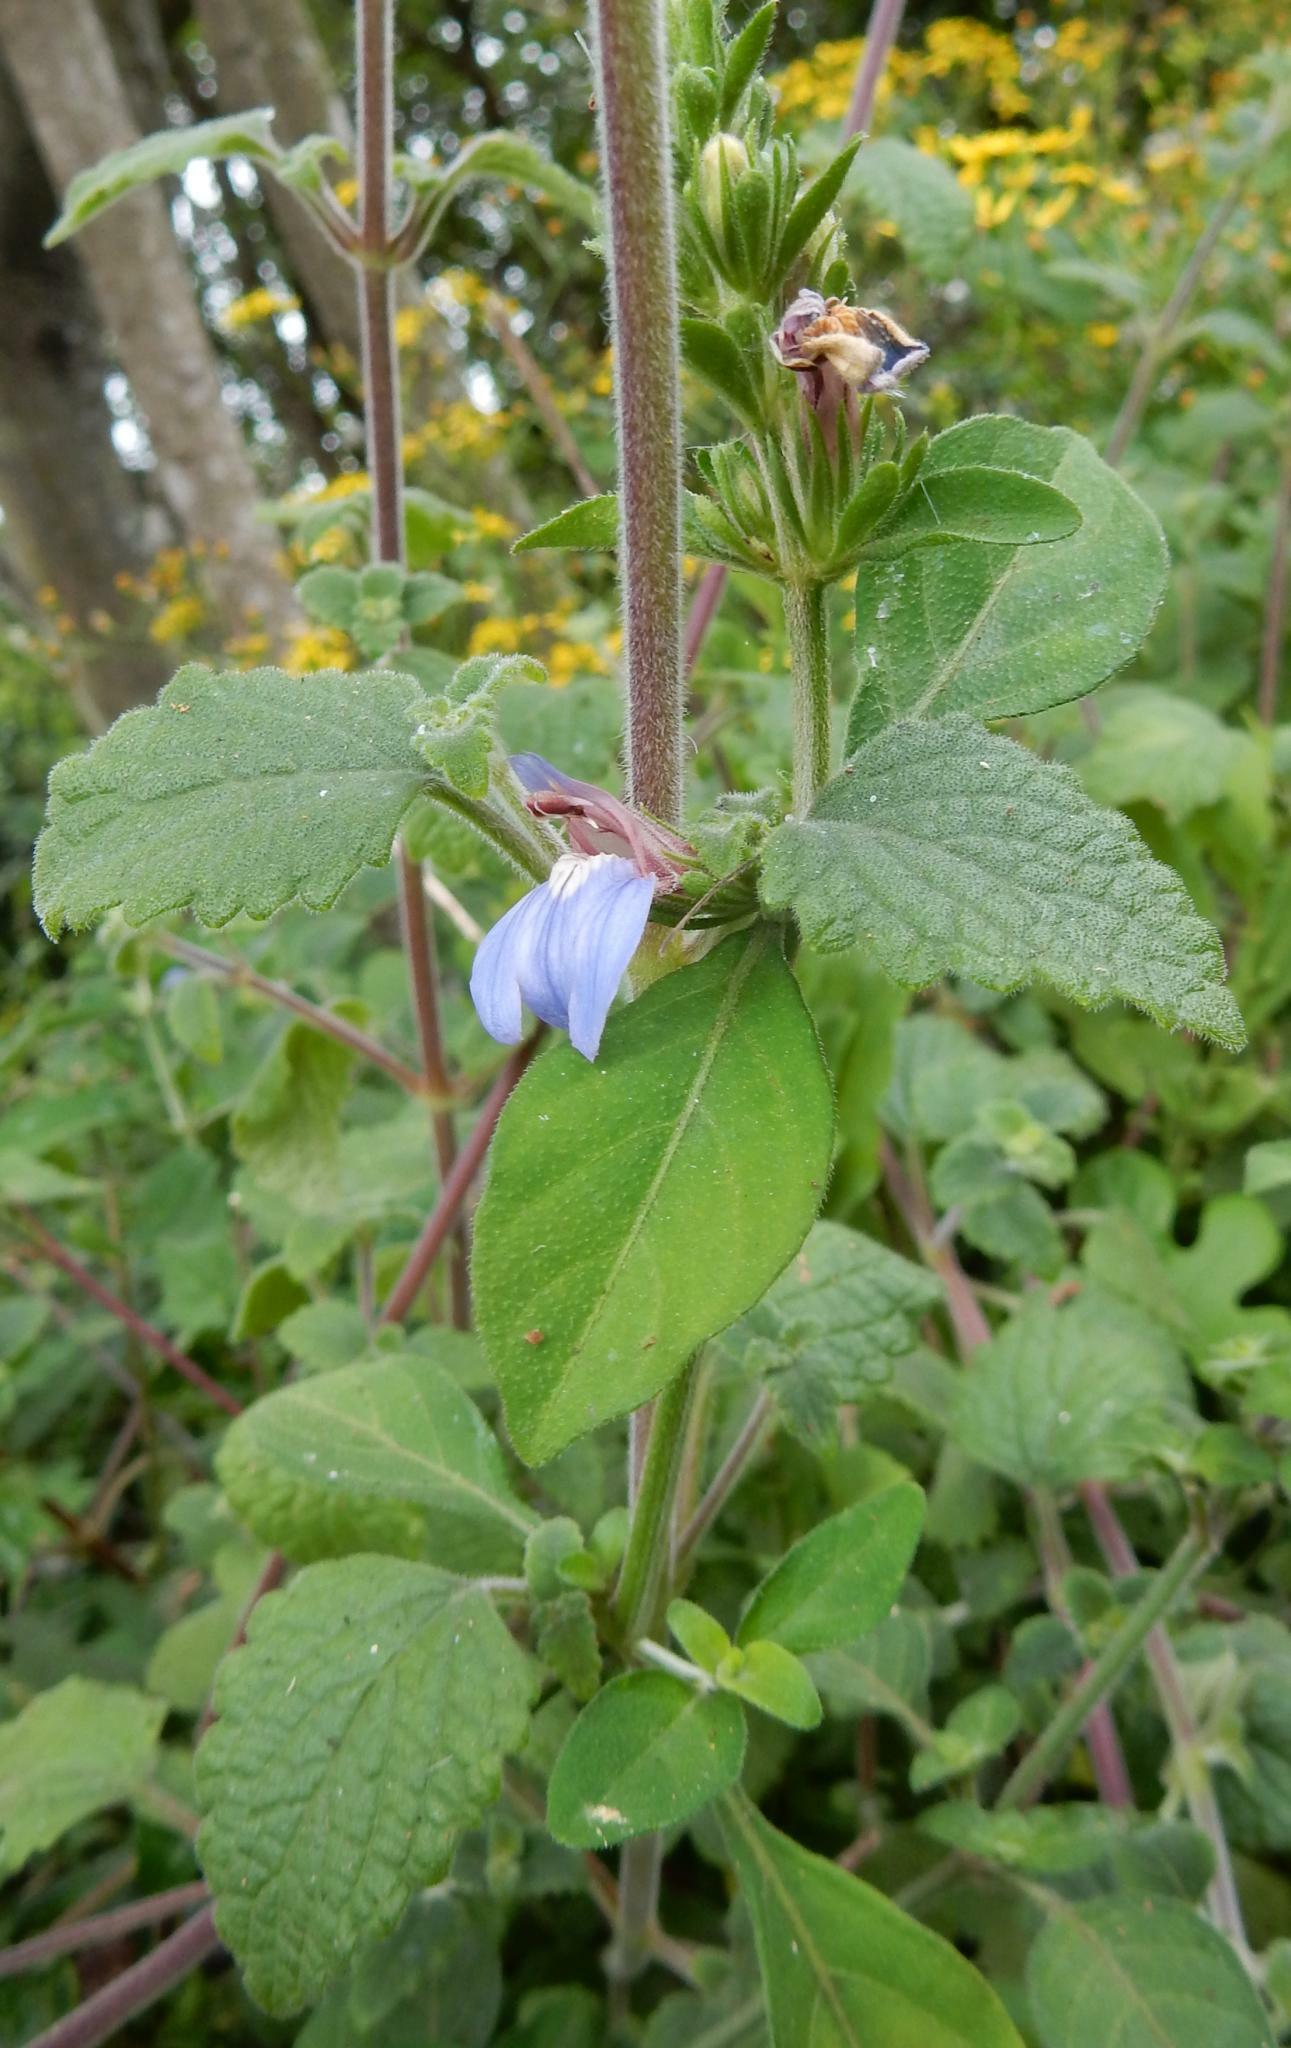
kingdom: Plantae
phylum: Tracheophyta
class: Magnoliopsida
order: Lamiales
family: Acanthaceae
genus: Justicia
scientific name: Justicia petiolaris
